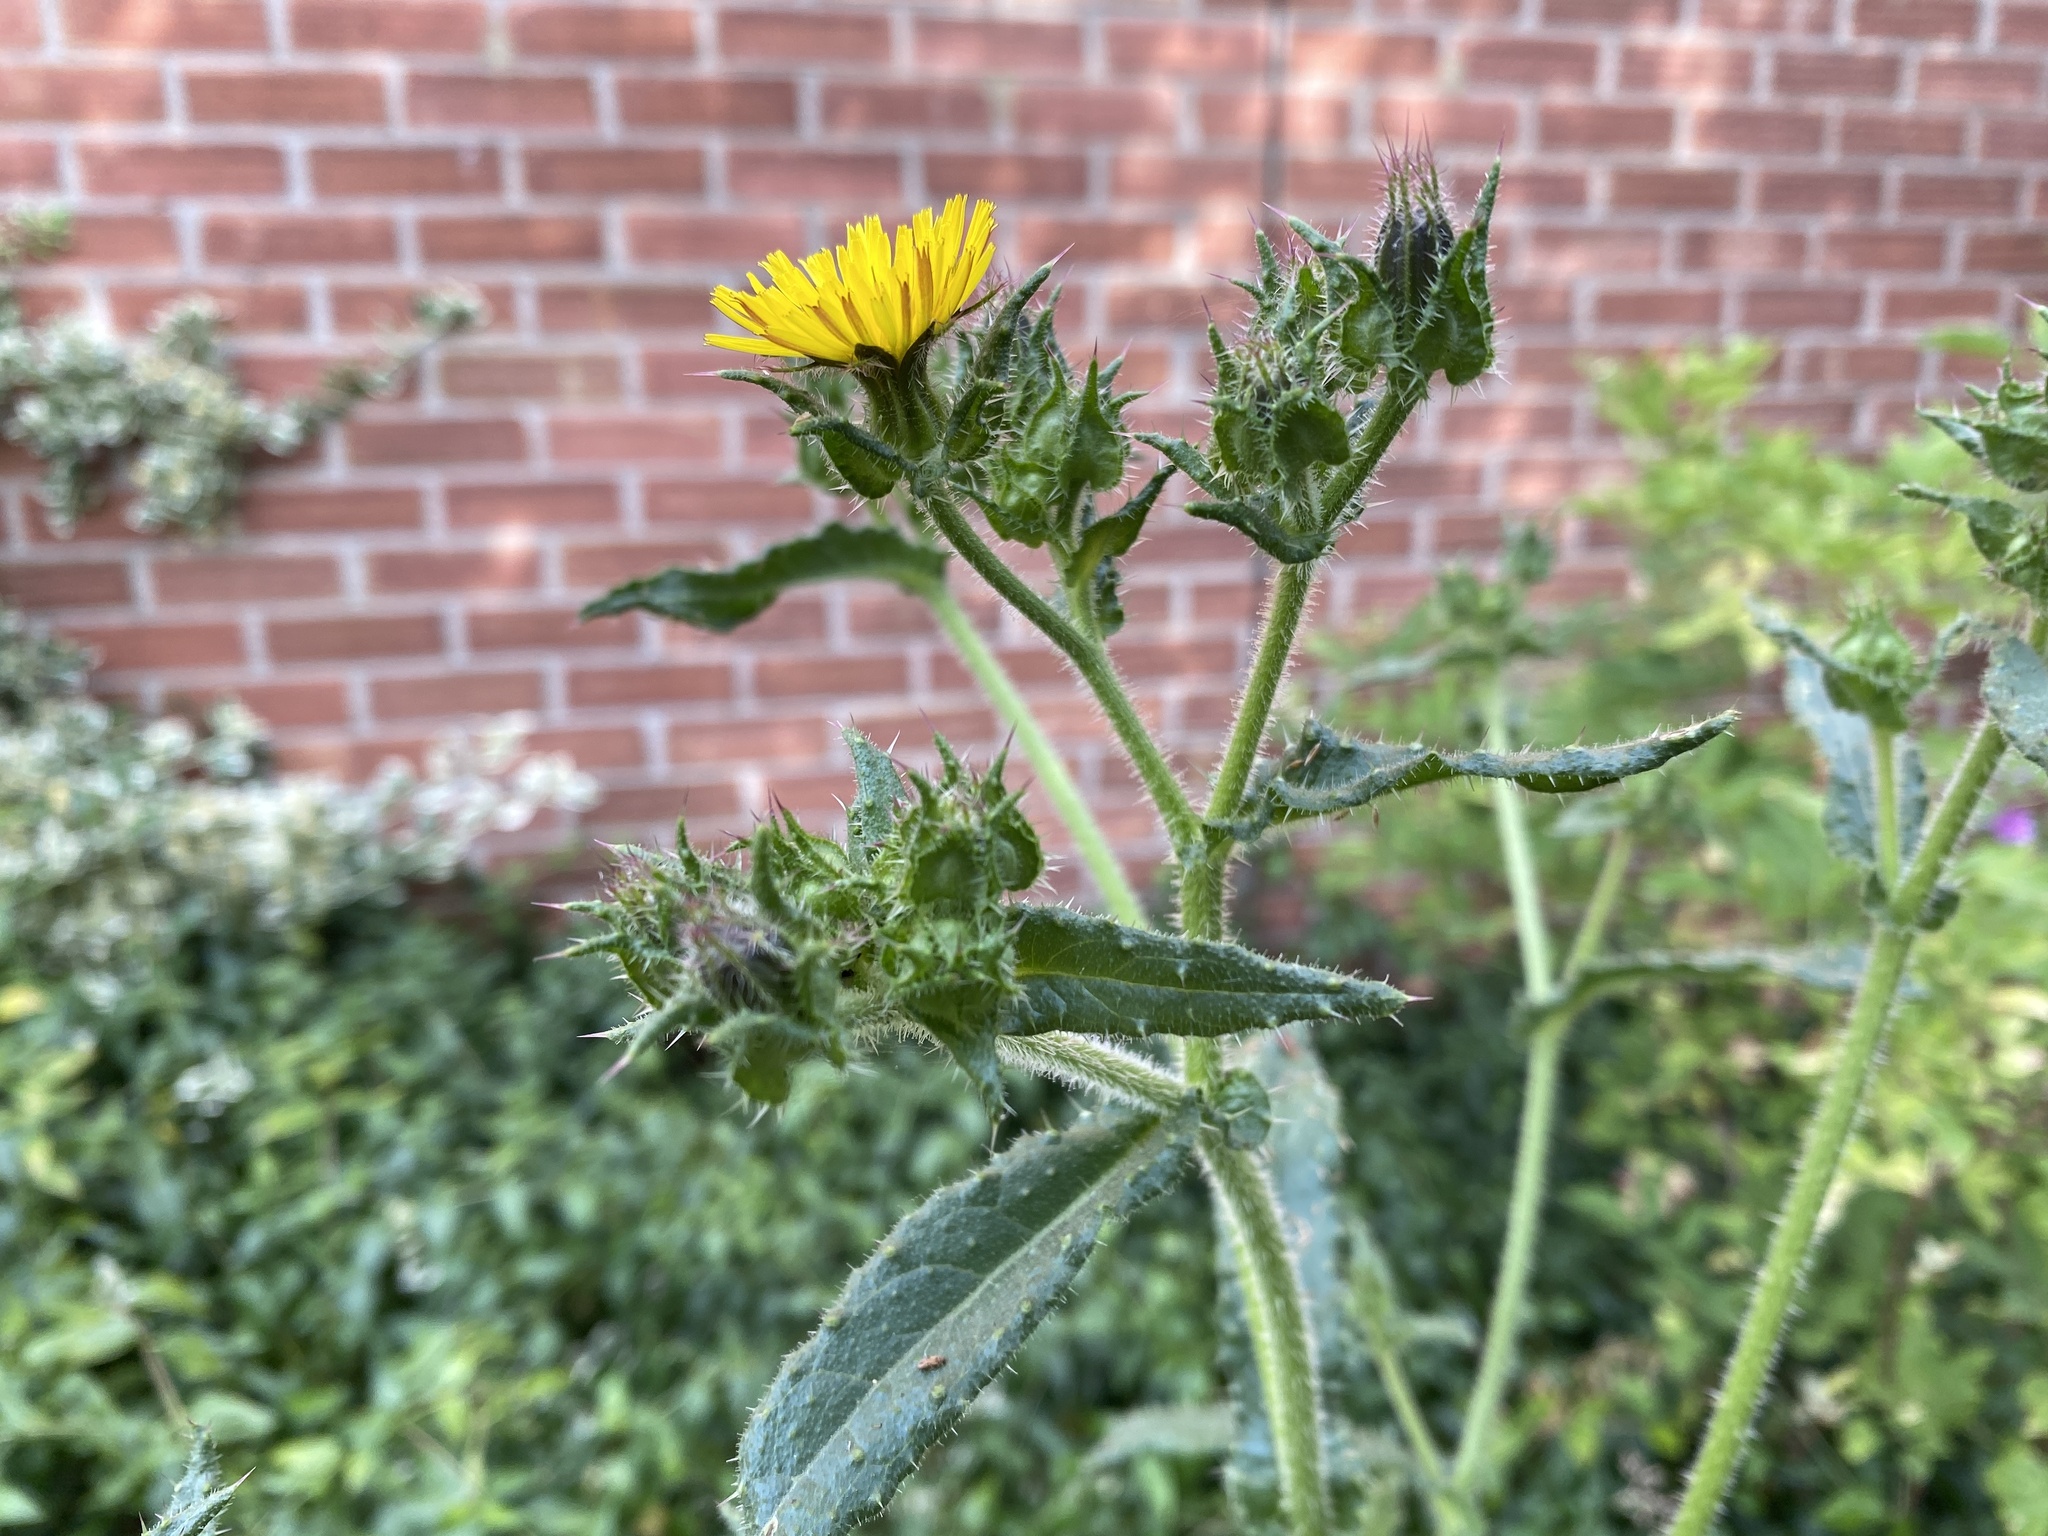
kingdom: Plantae
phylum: Tracheophyta
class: Magnoliopsida
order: Asterales
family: Asteraceae
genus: Helminthotheca
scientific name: Helminthotheca echioides
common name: Ox-tongue
